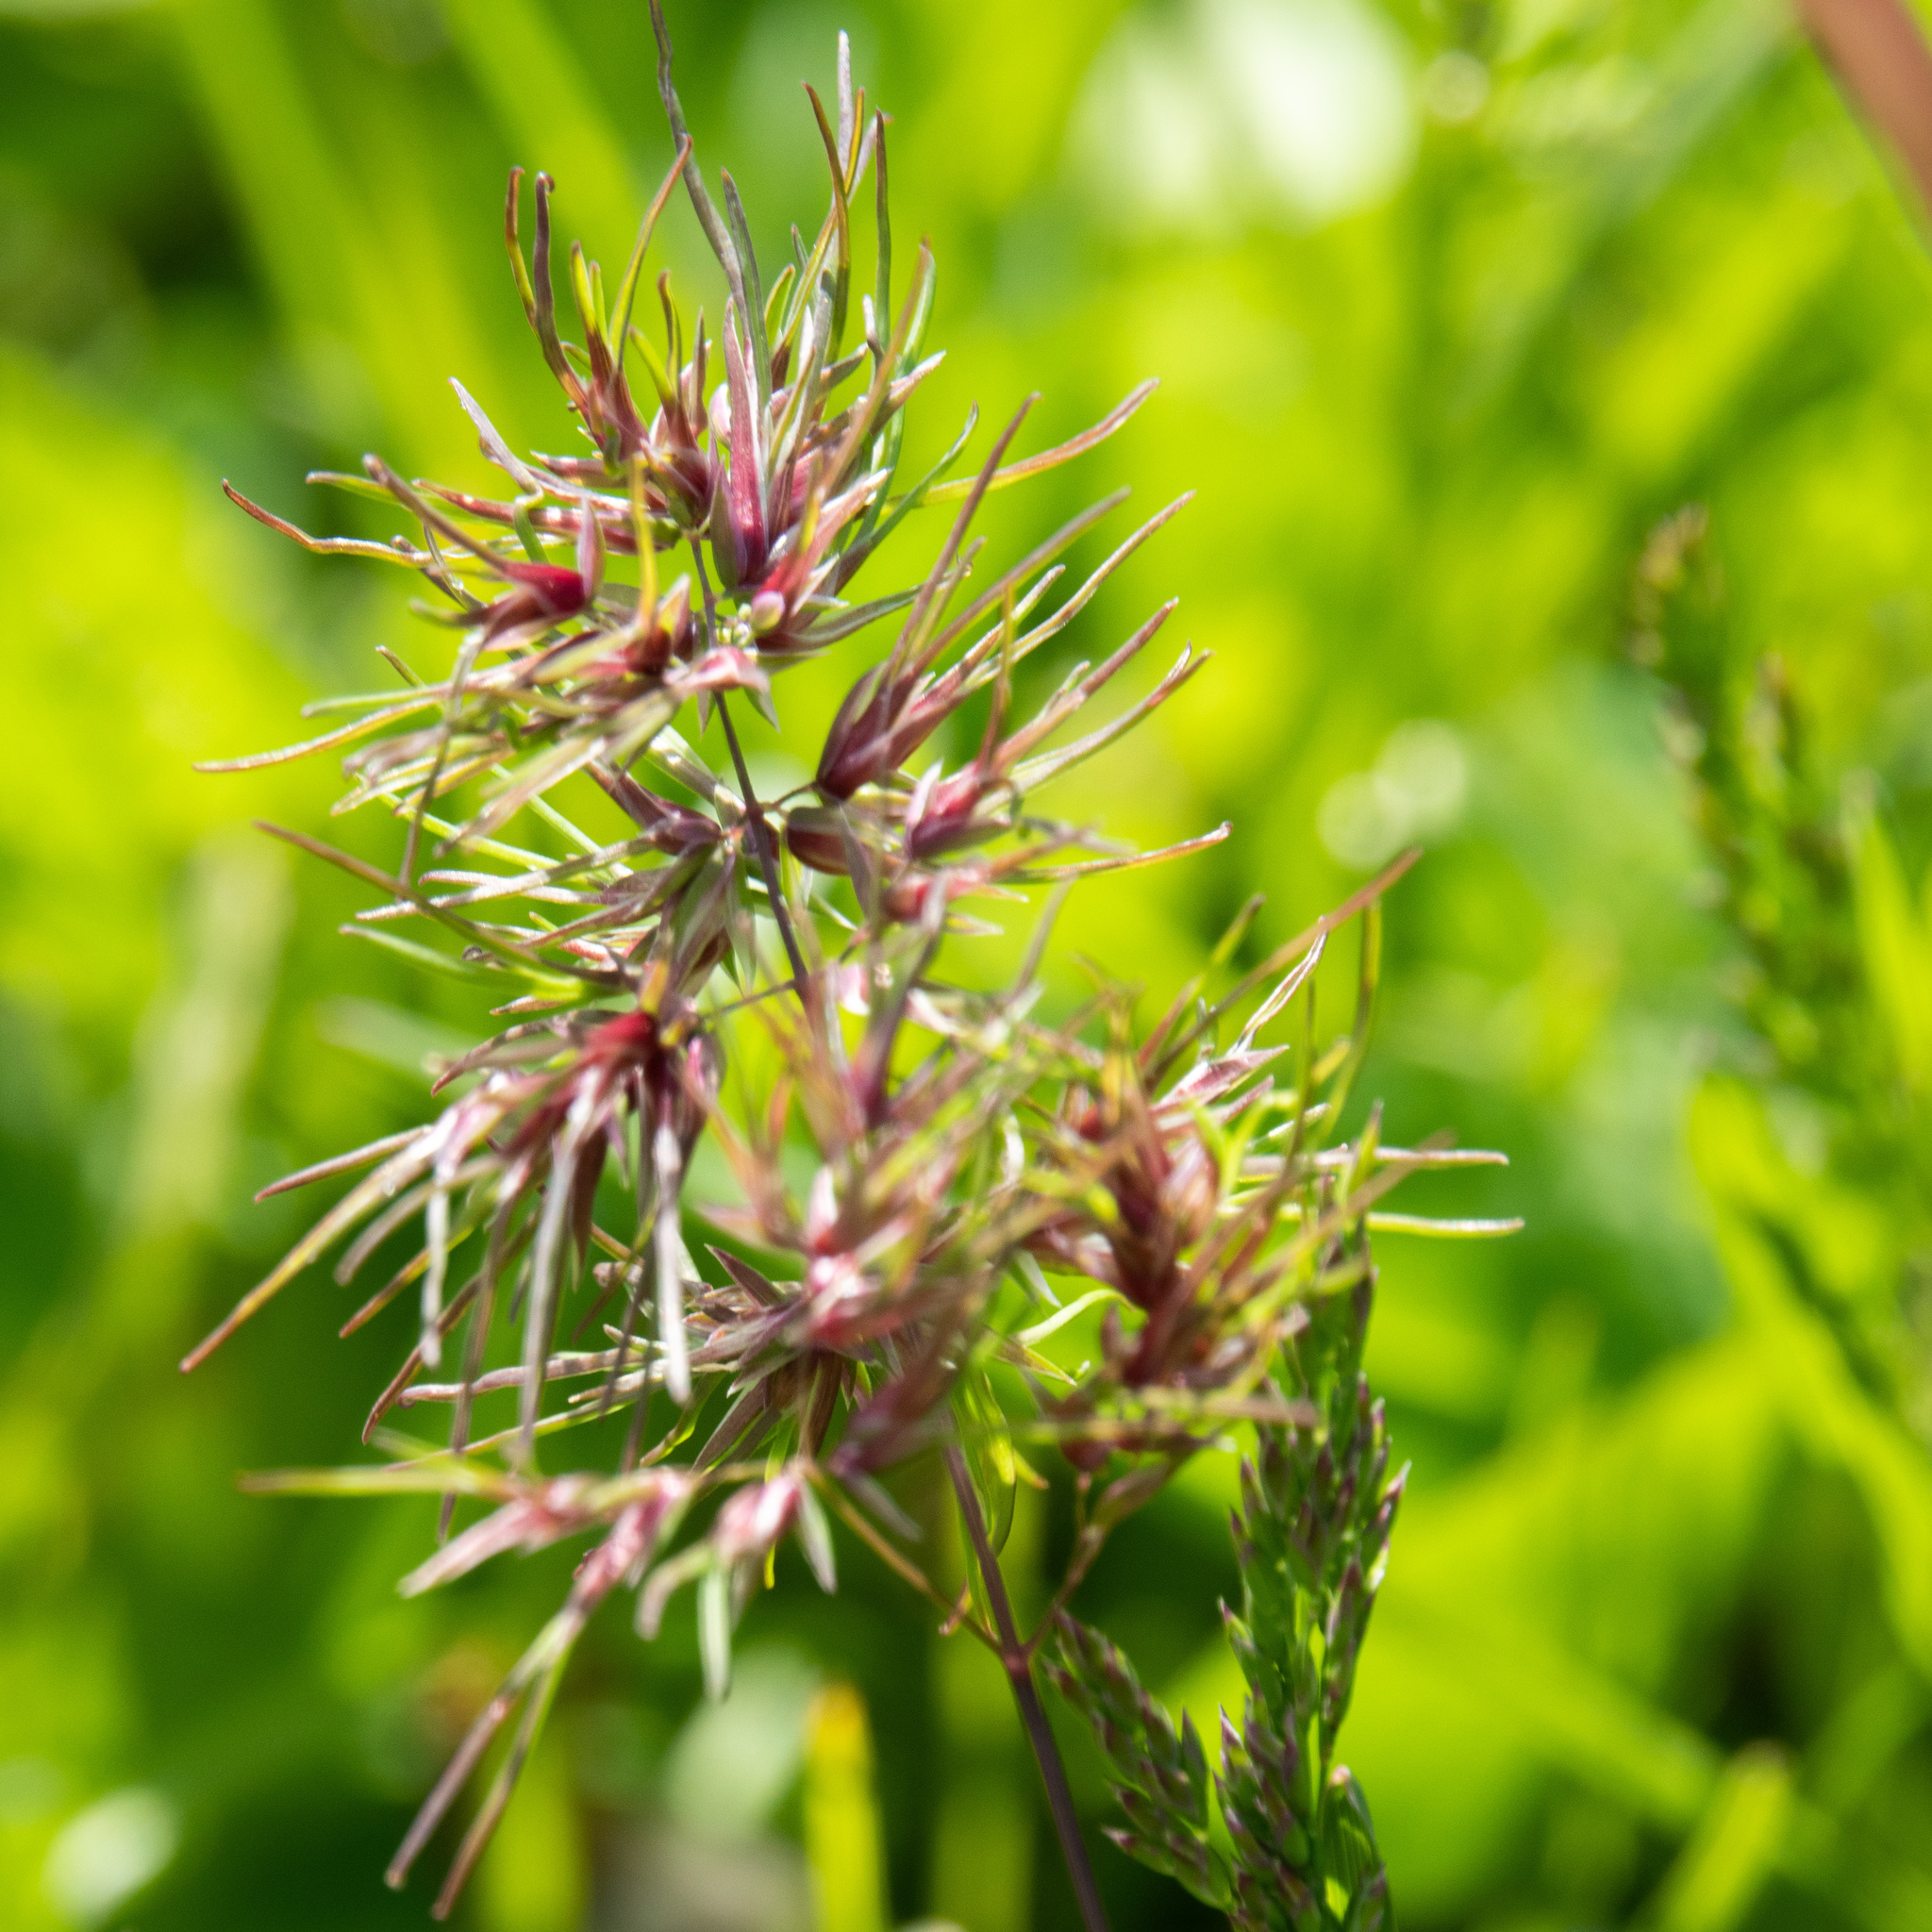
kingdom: Plantae
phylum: Tracheophyta
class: Liliopsida
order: Poales
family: Poaceae
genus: Poa
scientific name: Poa bulbosa
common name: Bulbous bluegrass
